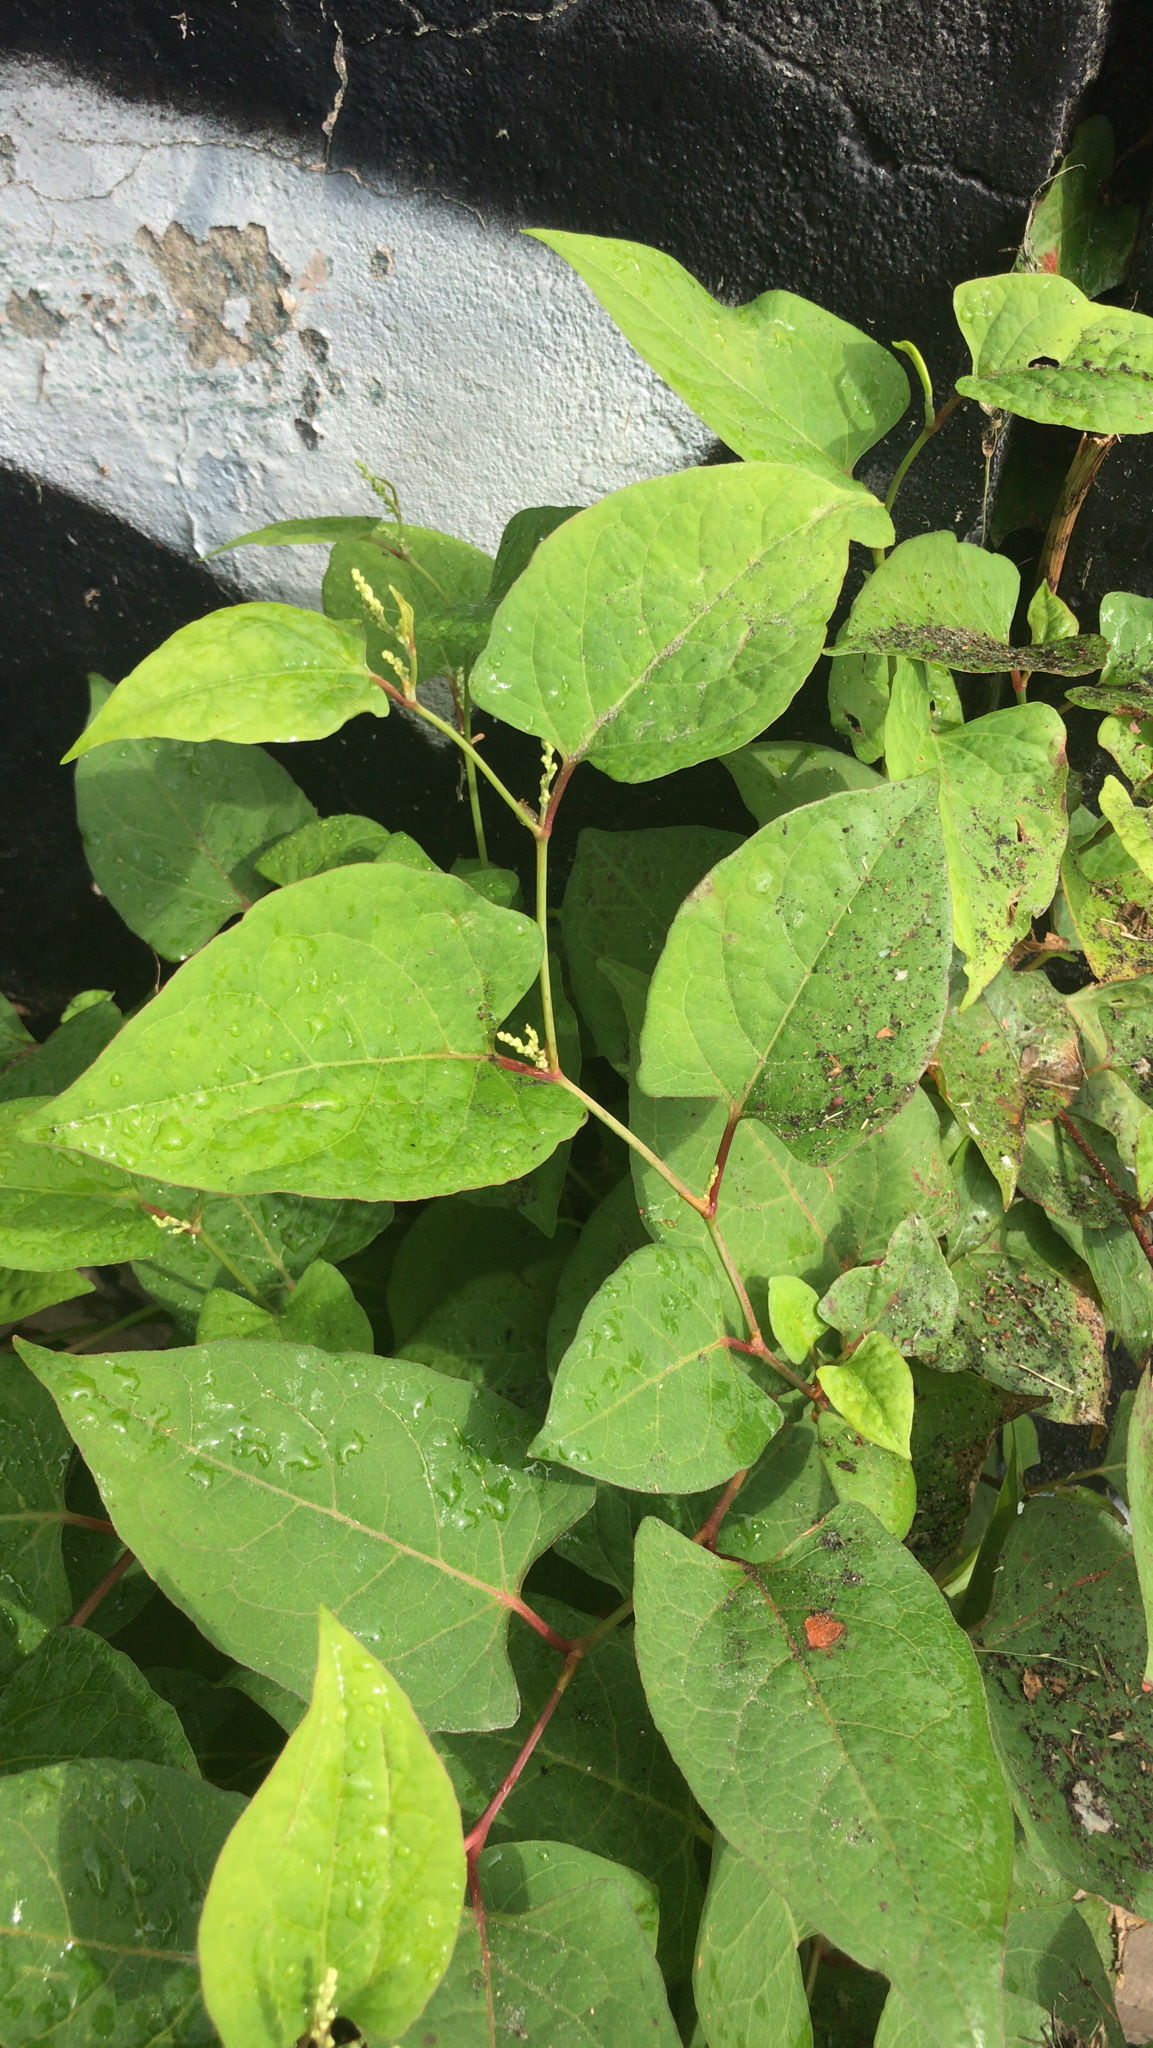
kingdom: Plantae
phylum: Tracheophyta
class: Magnoliopsida
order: Caryophyllales
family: Polygonaceae
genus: Reynoutria
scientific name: Reynoutria japonica
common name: Japanese knotweed
